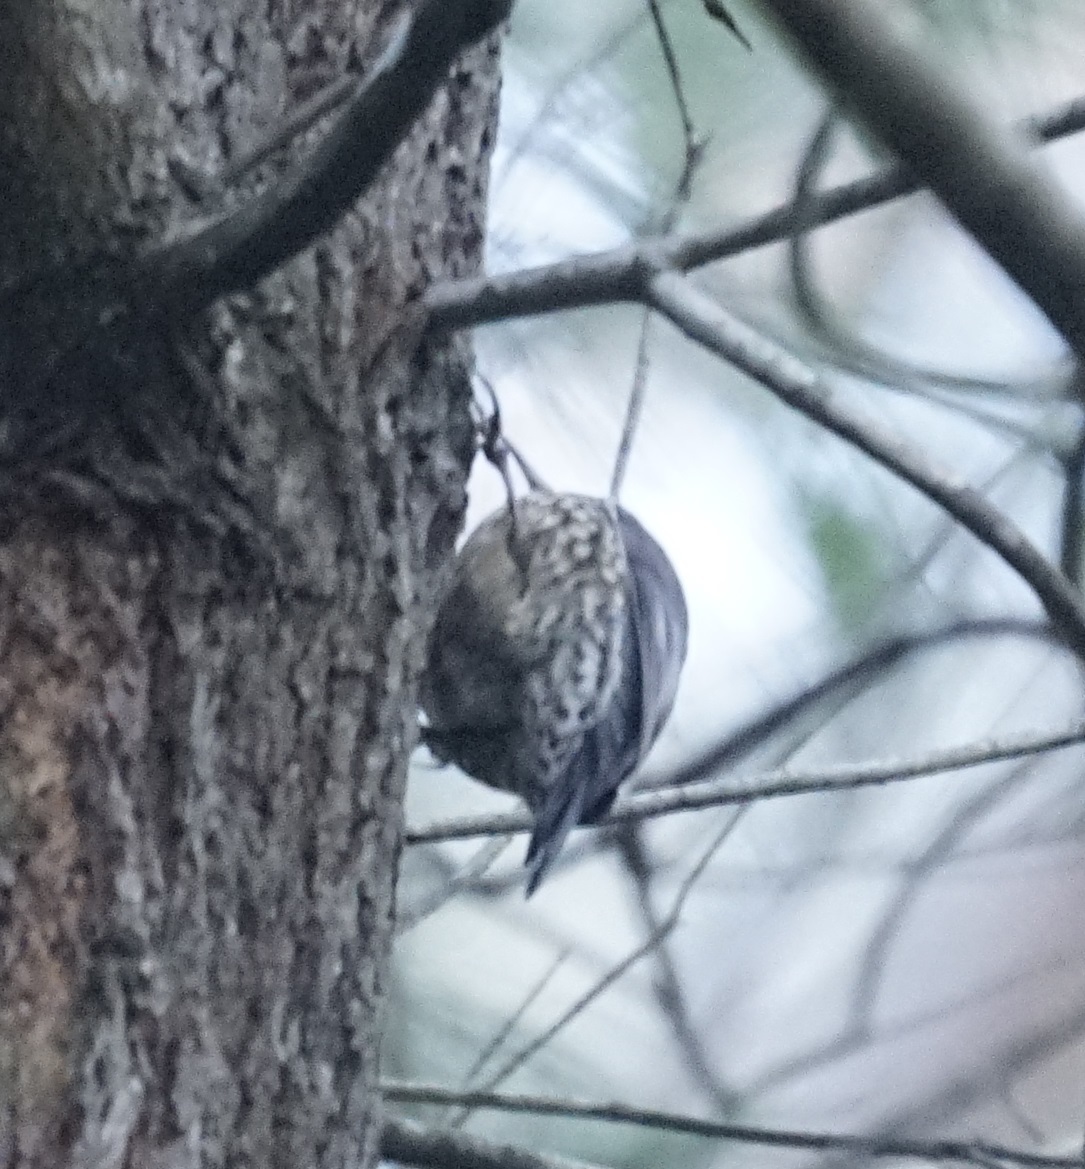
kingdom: Animalia
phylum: Chordata
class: Aves
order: Passeriformes
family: Climacteridae
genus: Cormobates
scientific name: Cormobates leucophaea
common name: White-throated treecreeper
